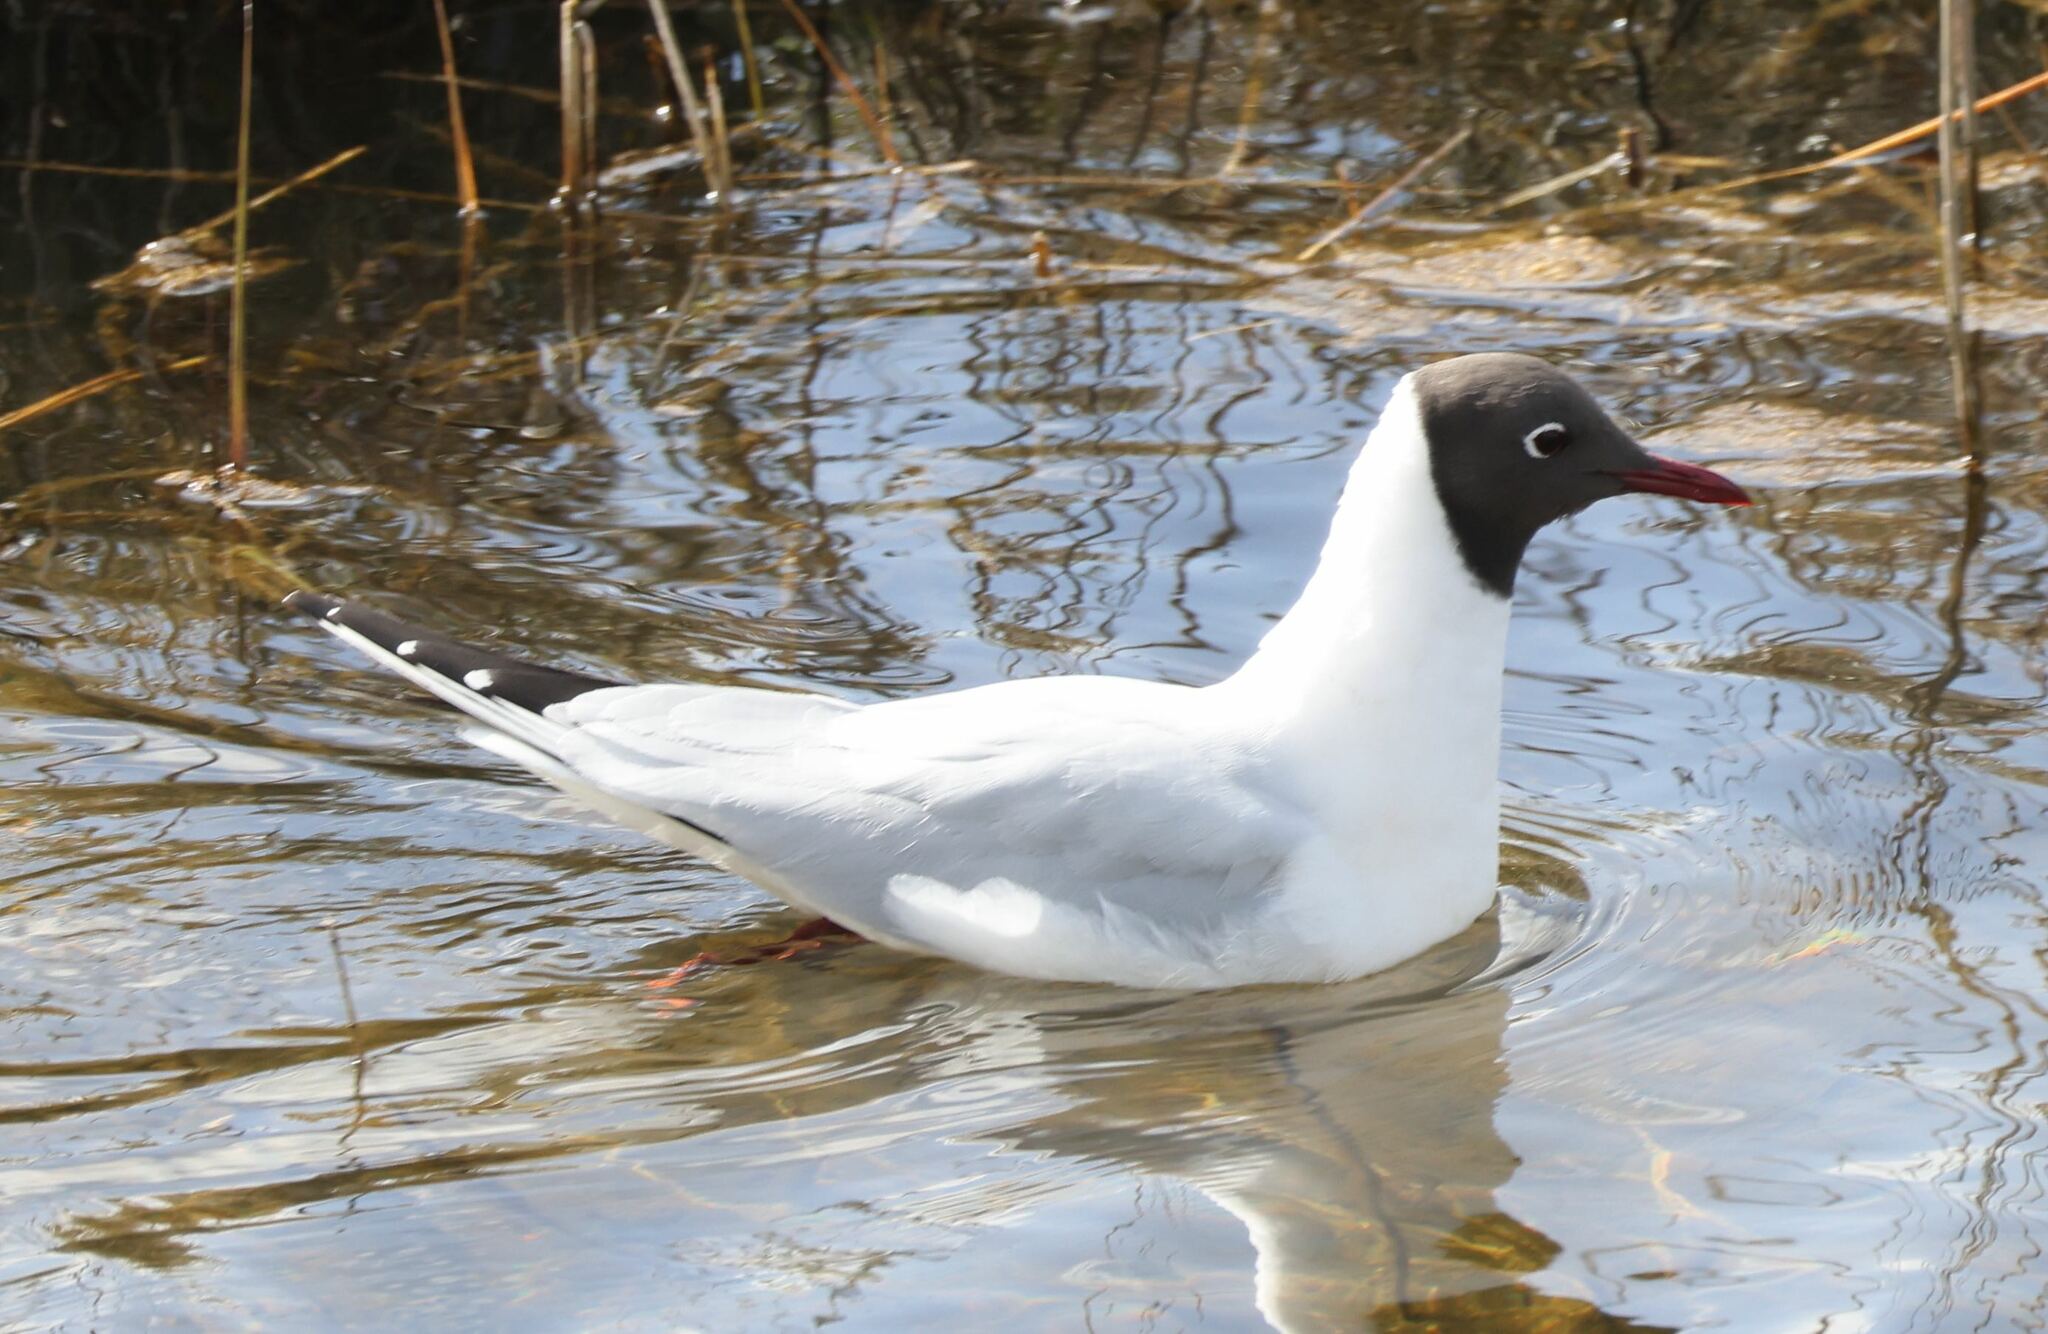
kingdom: Animalia
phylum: Chordata
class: Aves
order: Charadriiformes
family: Laridae
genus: Chroicocephalus
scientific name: Chroicocephalus ridibundus
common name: Black-headed gull
